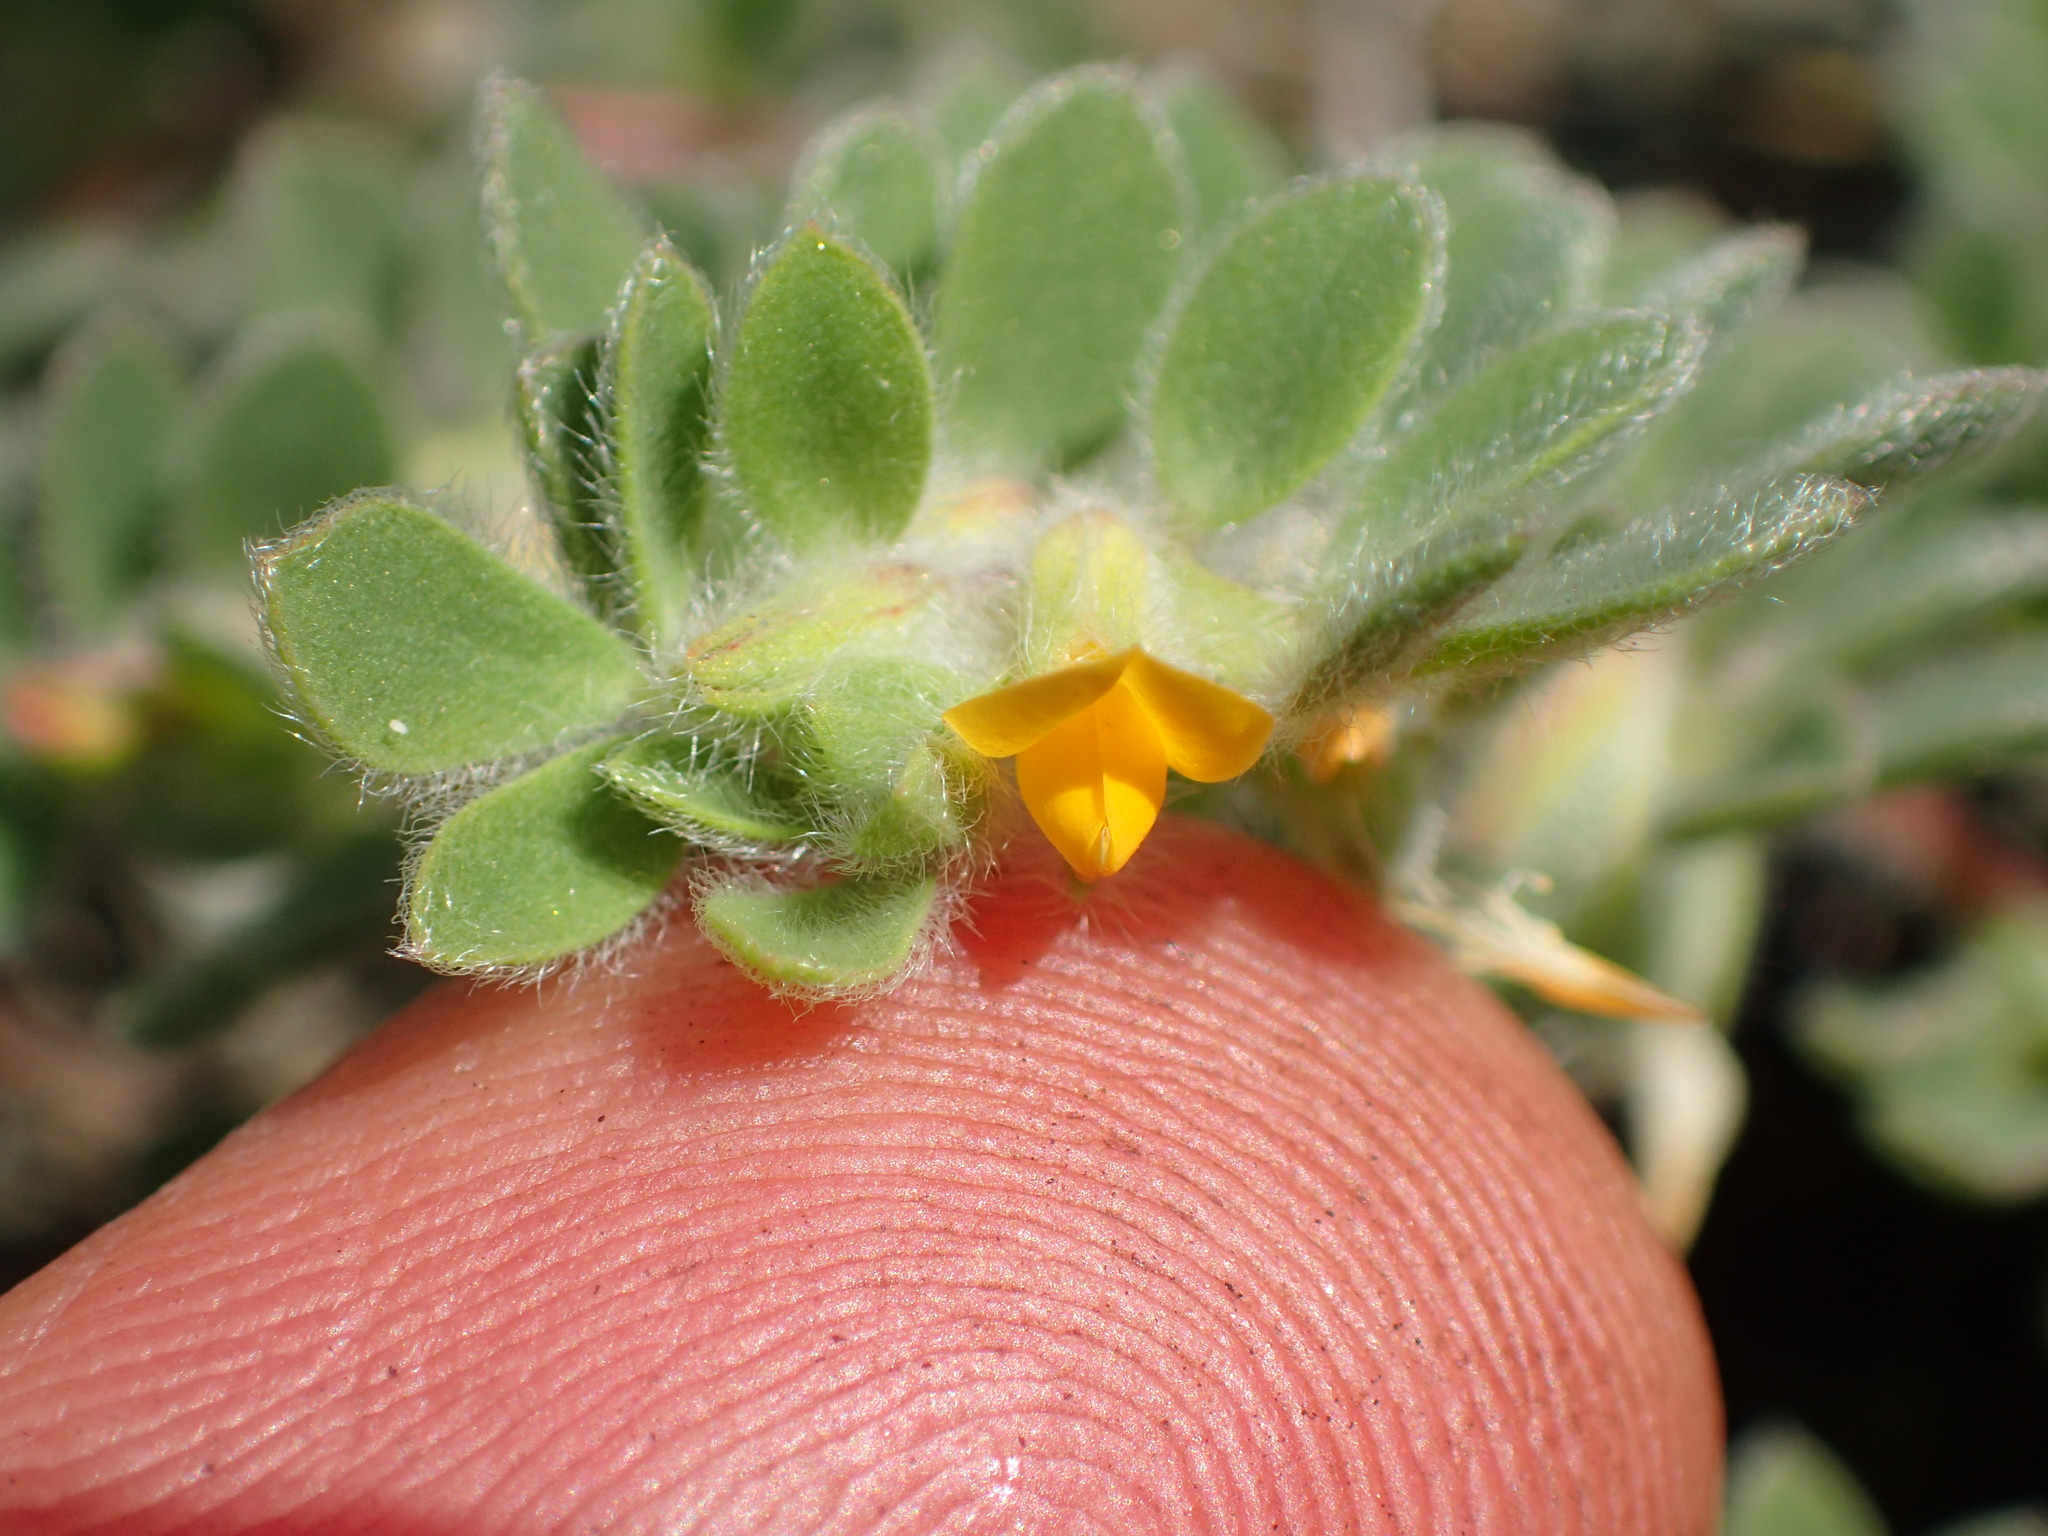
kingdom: Plantae
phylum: Tracheophyta
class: Magnoliopsida
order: Fabales
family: Fabaceae
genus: Acmispon
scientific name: Acmispon brachycarpus
